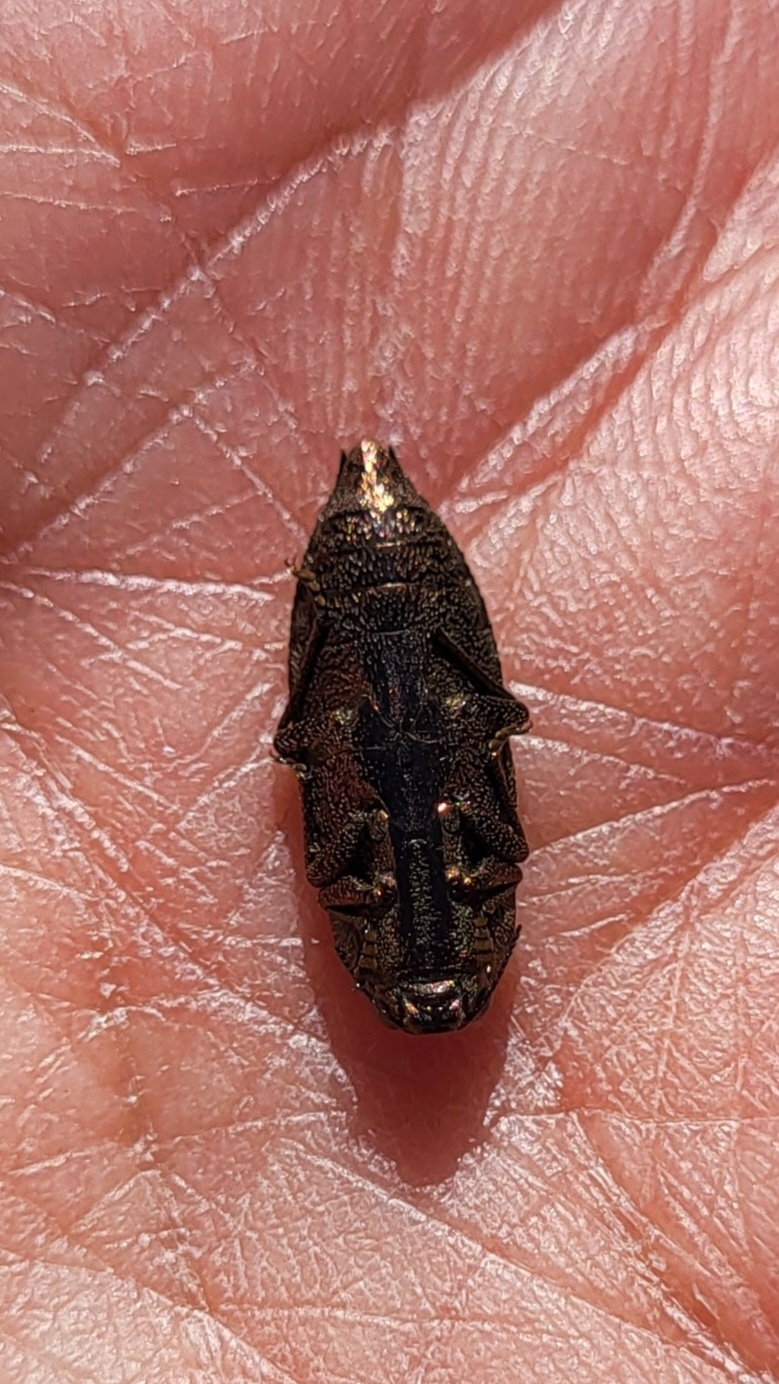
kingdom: Animalia
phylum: Arthropoda
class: Insecta
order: Coleoptera
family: Buprestidae
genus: Dicerca
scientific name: Dicerca obscura
